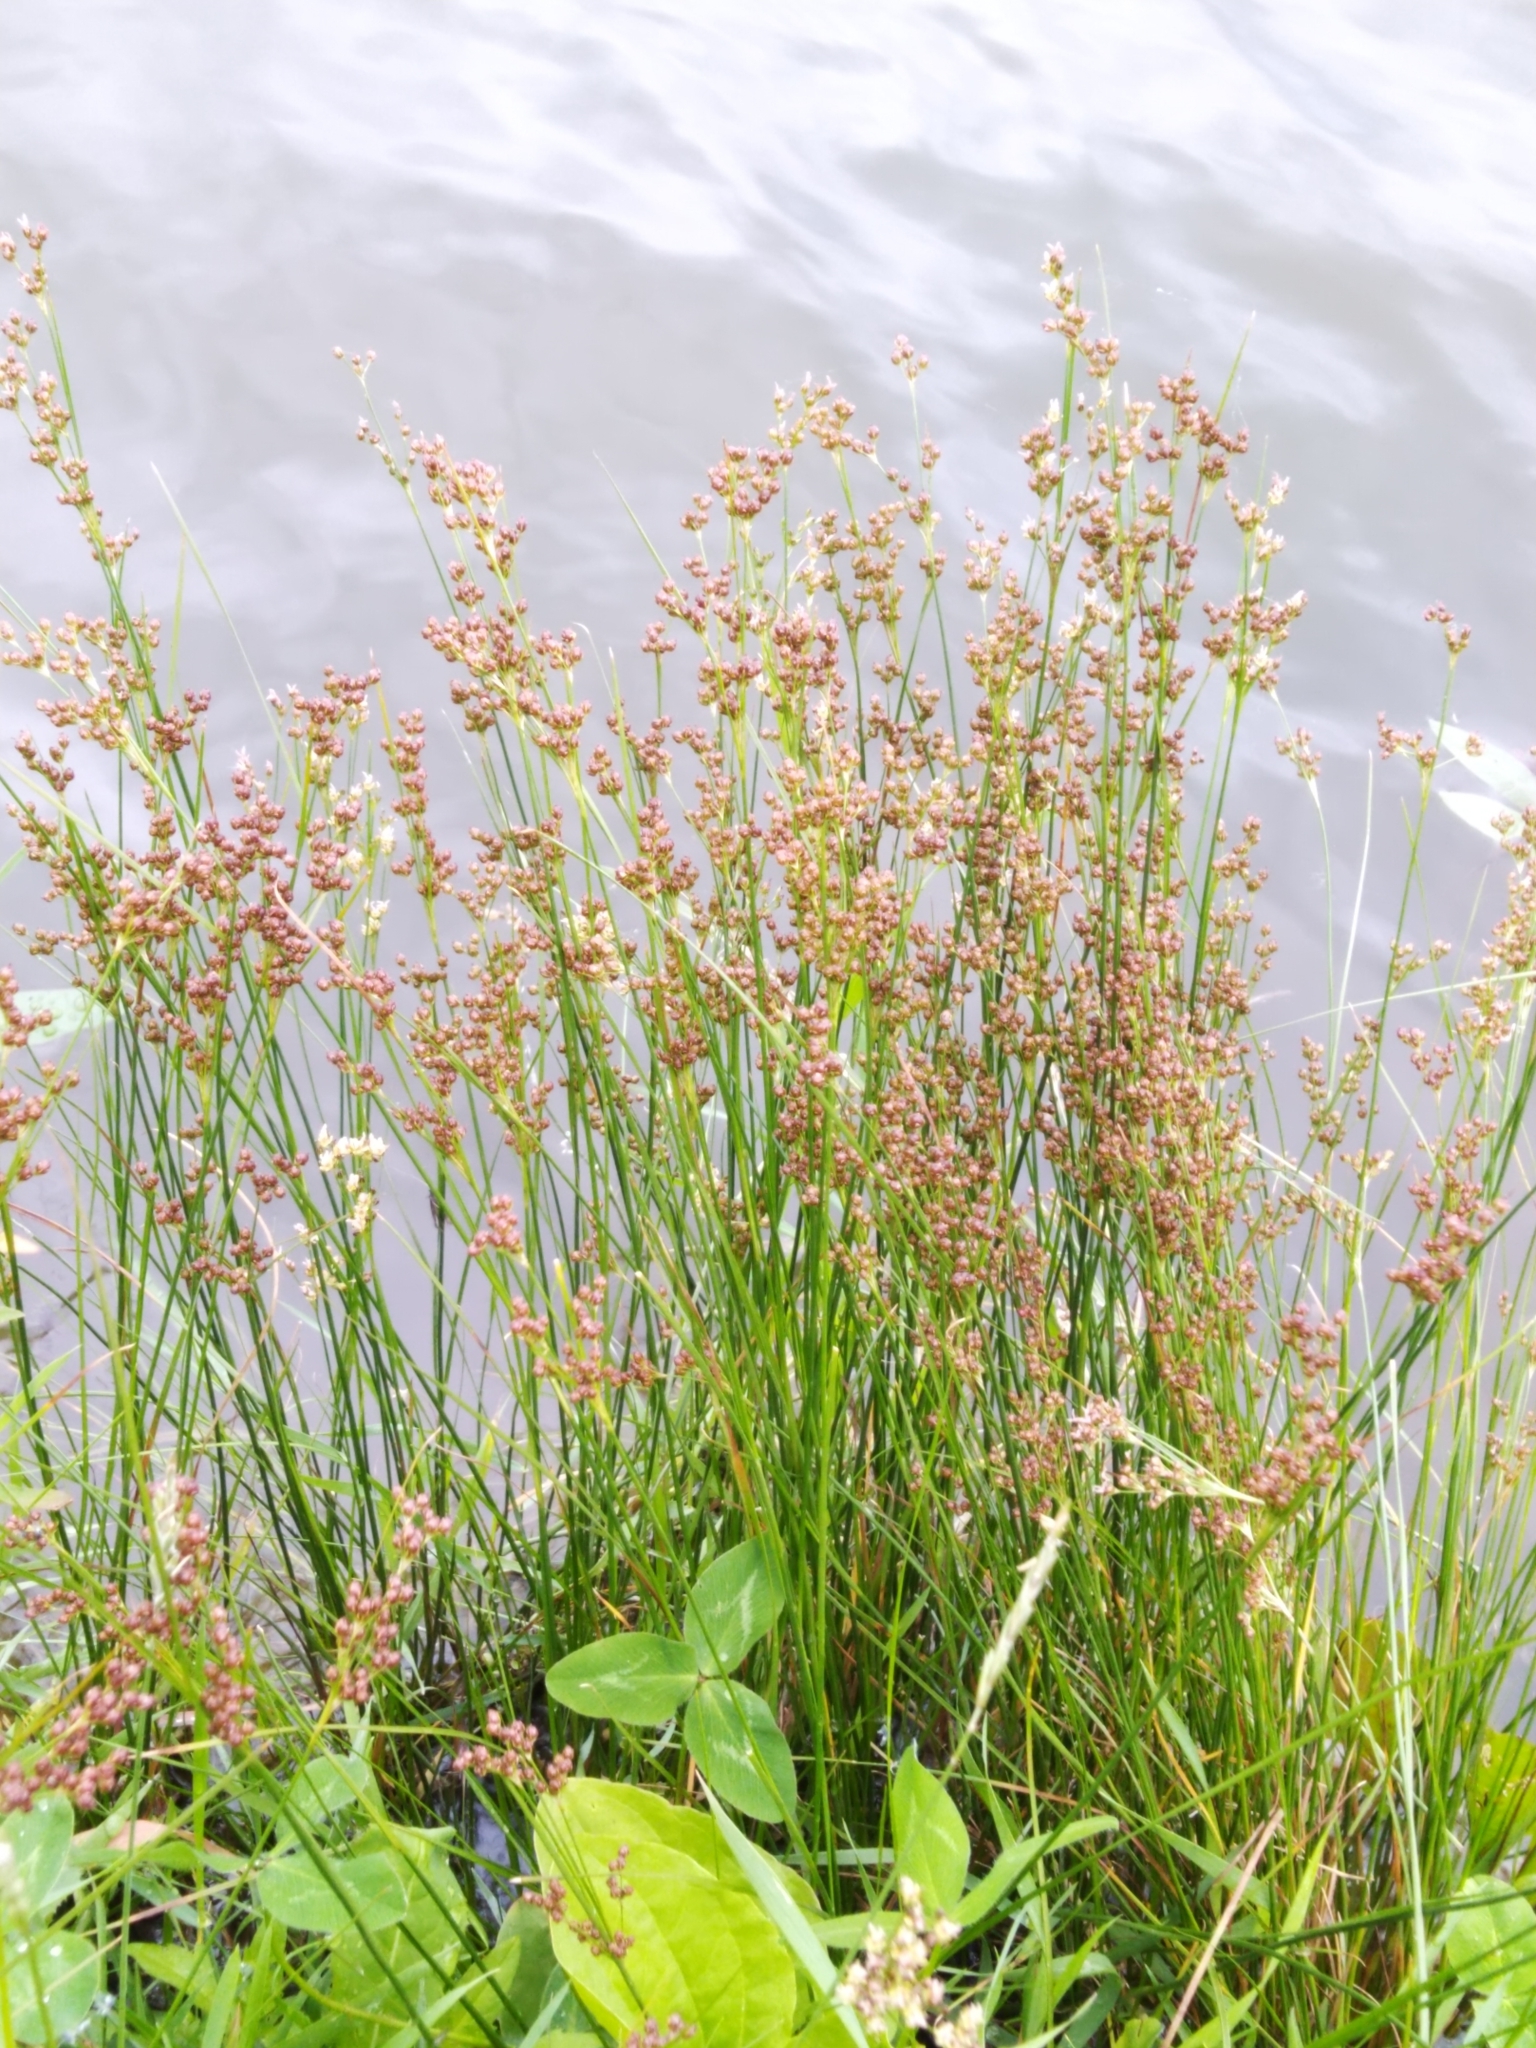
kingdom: Plantae
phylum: Tracheophyta
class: Liliopsida
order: Poales
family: Juncaceae
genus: Juncus
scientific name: Juncus compressus
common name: Round-fruited rush
